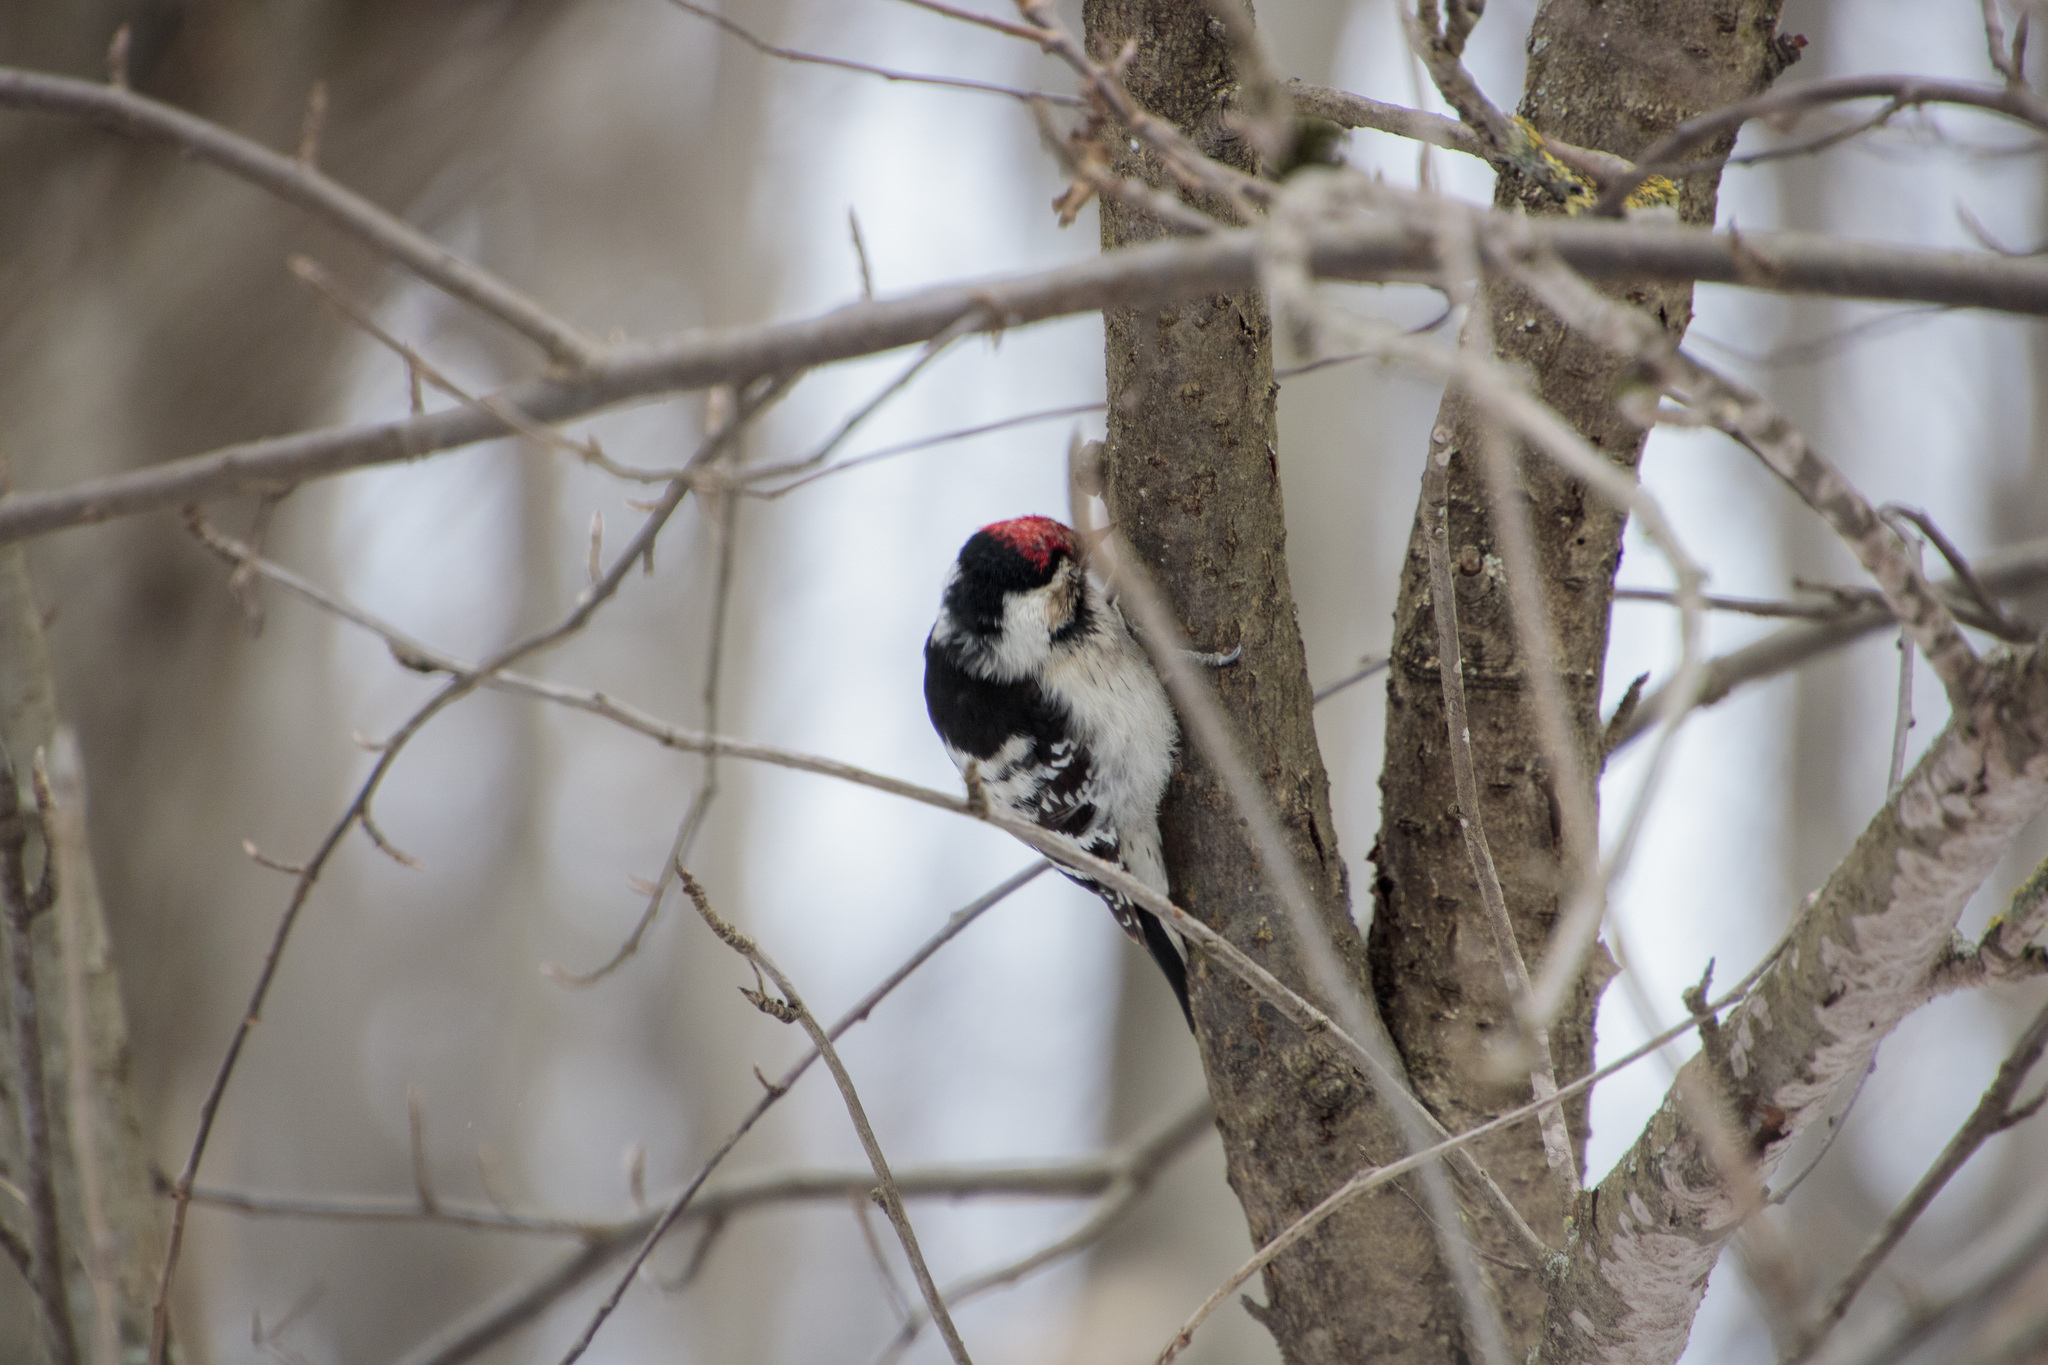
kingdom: Animalia
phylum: Chordata
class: Aves
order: Piciformes
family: Picidae
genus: Dryobates
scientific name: Dryobates minor
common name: Lesser spotted woodpecker
